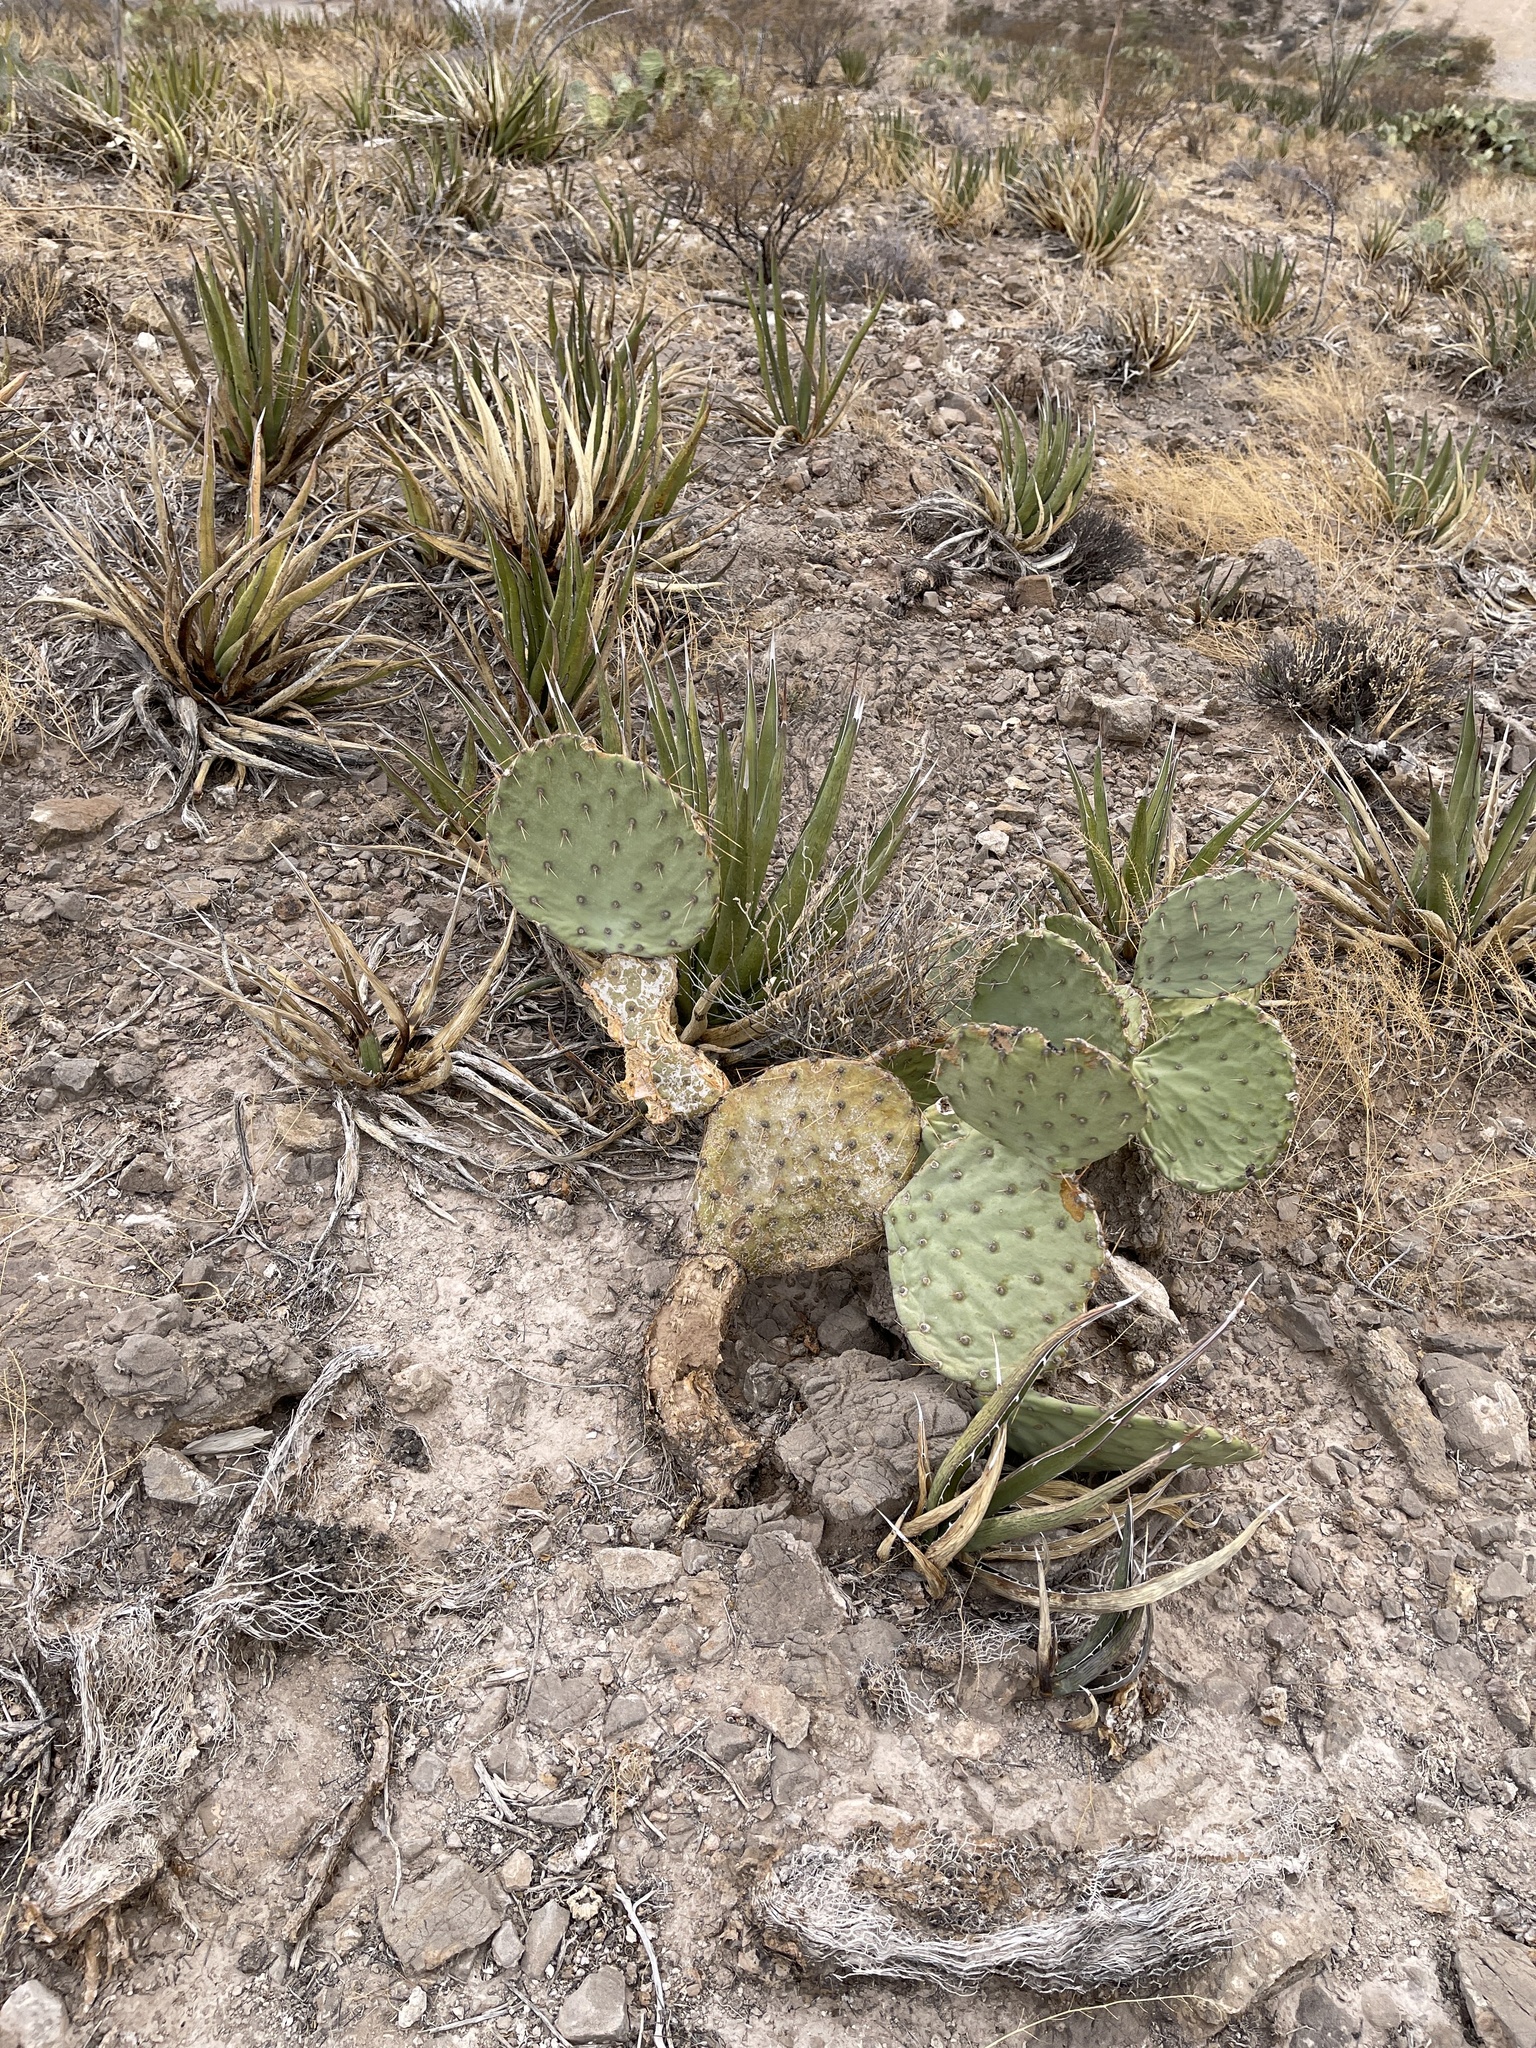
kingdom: Plantae
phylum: Tracheophyta
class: Magnoliopsida
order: Caryophyllales
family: Cactaceae
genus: Opuntia
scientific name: Opuntia engelmannii
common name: Cactus-apple
